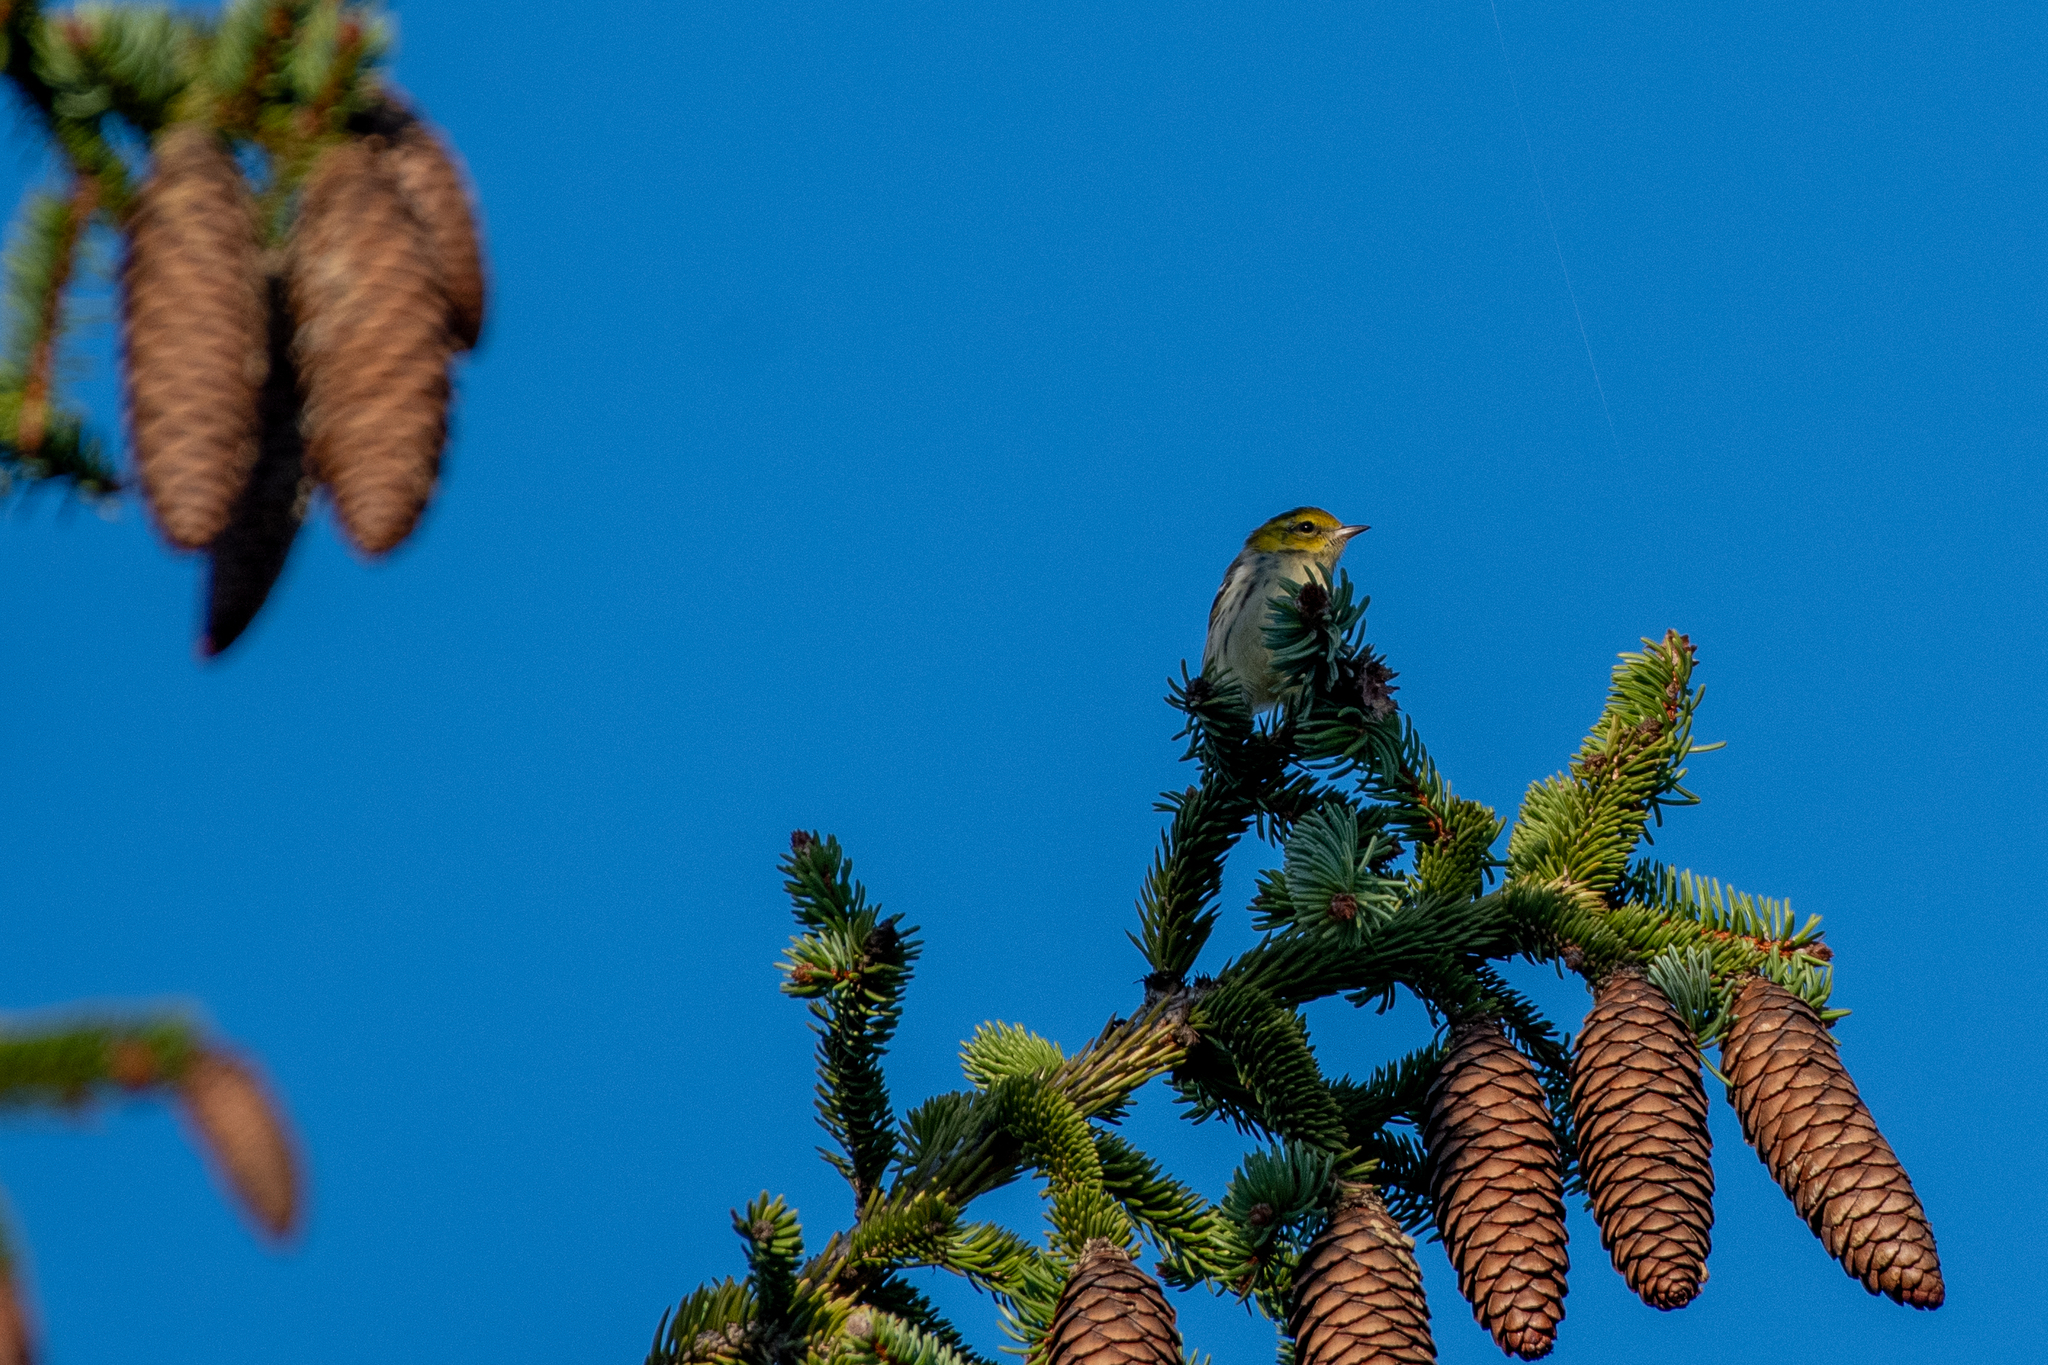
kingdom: Animalia
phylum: Chordata
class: Aves
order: Passeriformes
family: Parulidae
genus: Setophaga
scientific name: Setophaga virens
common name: Black-throated green warbler
